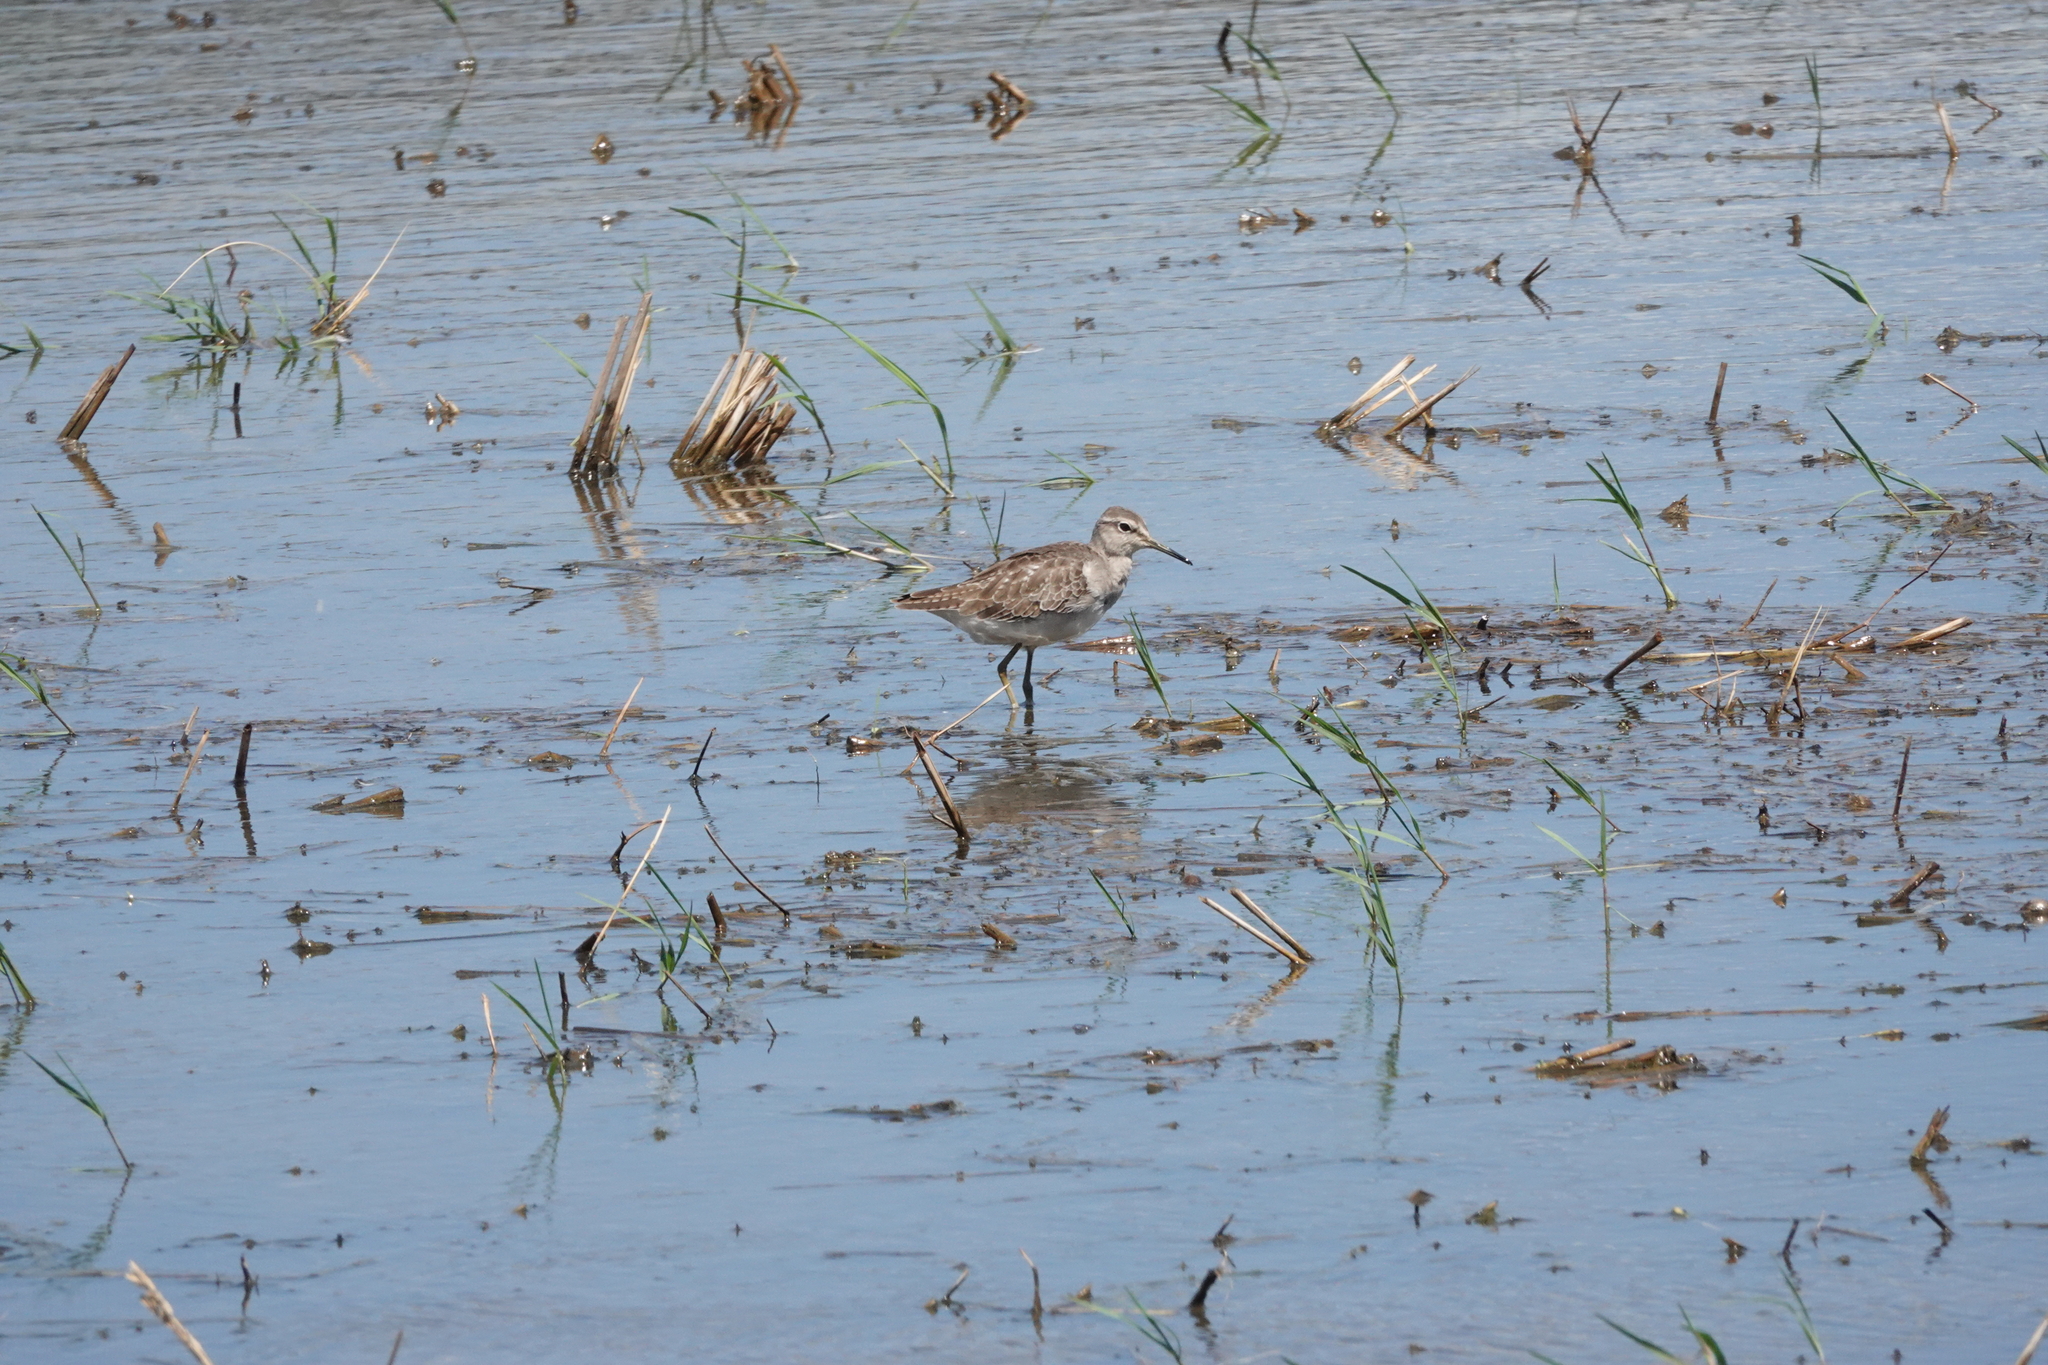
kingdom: Animalia
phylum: Chordata
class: Aves
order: Charadriiformes
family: Scolopacidae
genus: Tringa
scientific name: Tringa glareola
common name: Wood sandpiper
